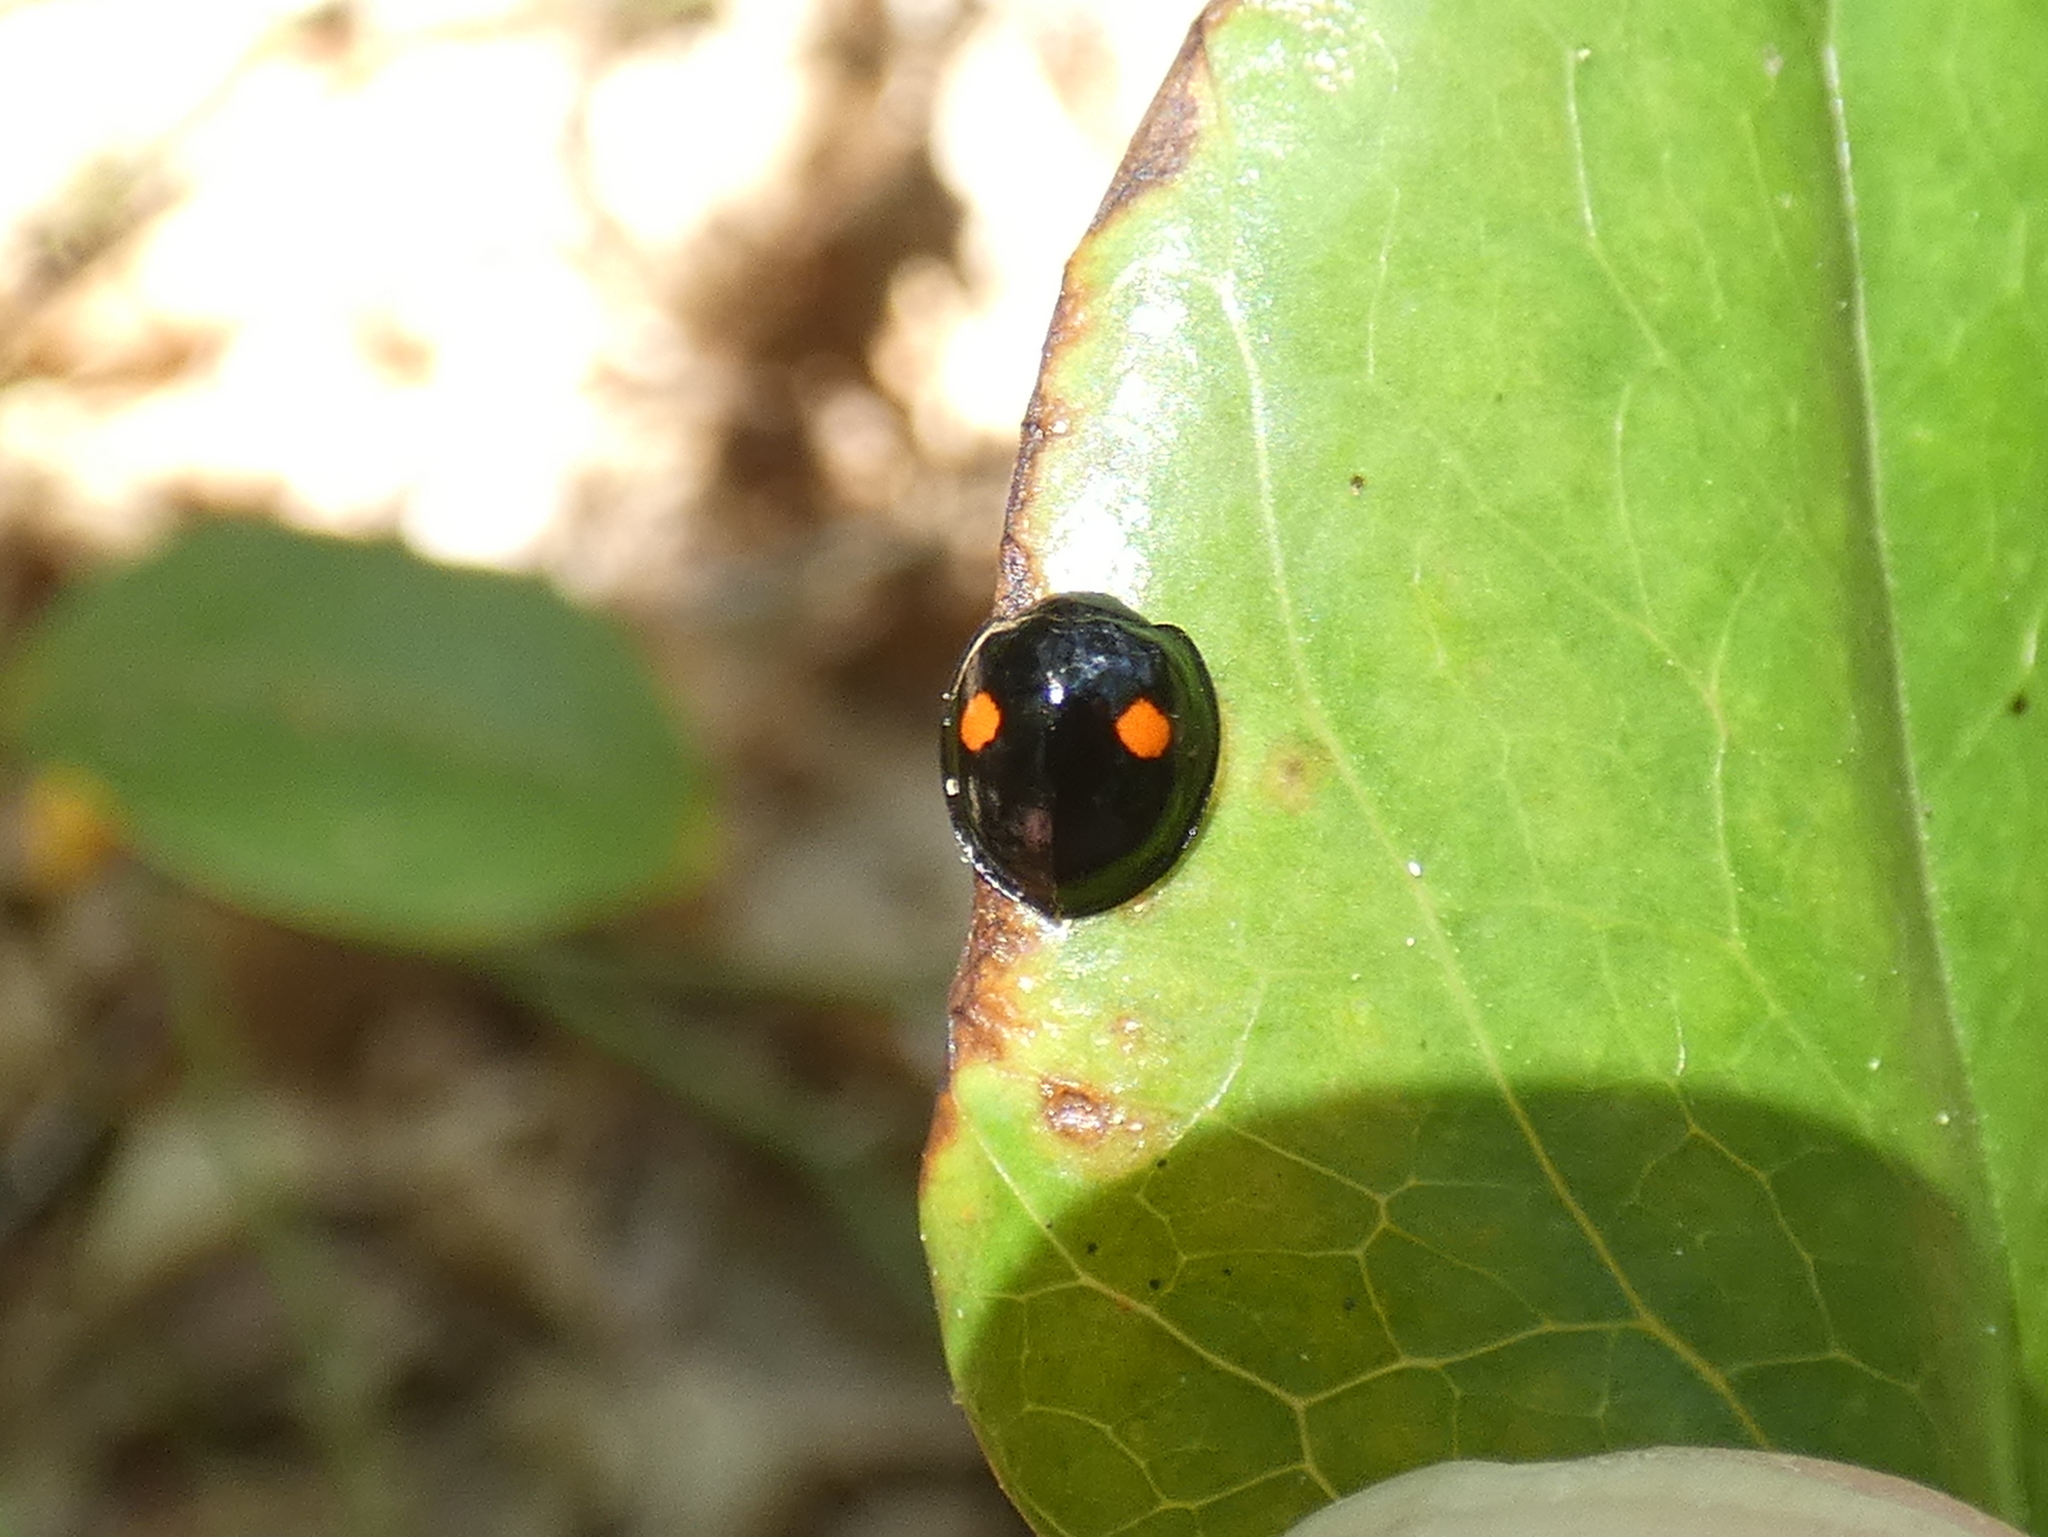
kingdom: Animalia
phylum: Arthropoda
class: Insecta
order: Coleoptera
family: Coccinellidae
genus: Chilocorus
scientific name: Chilocorus stigma
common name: Twicestabbed lady beetle
